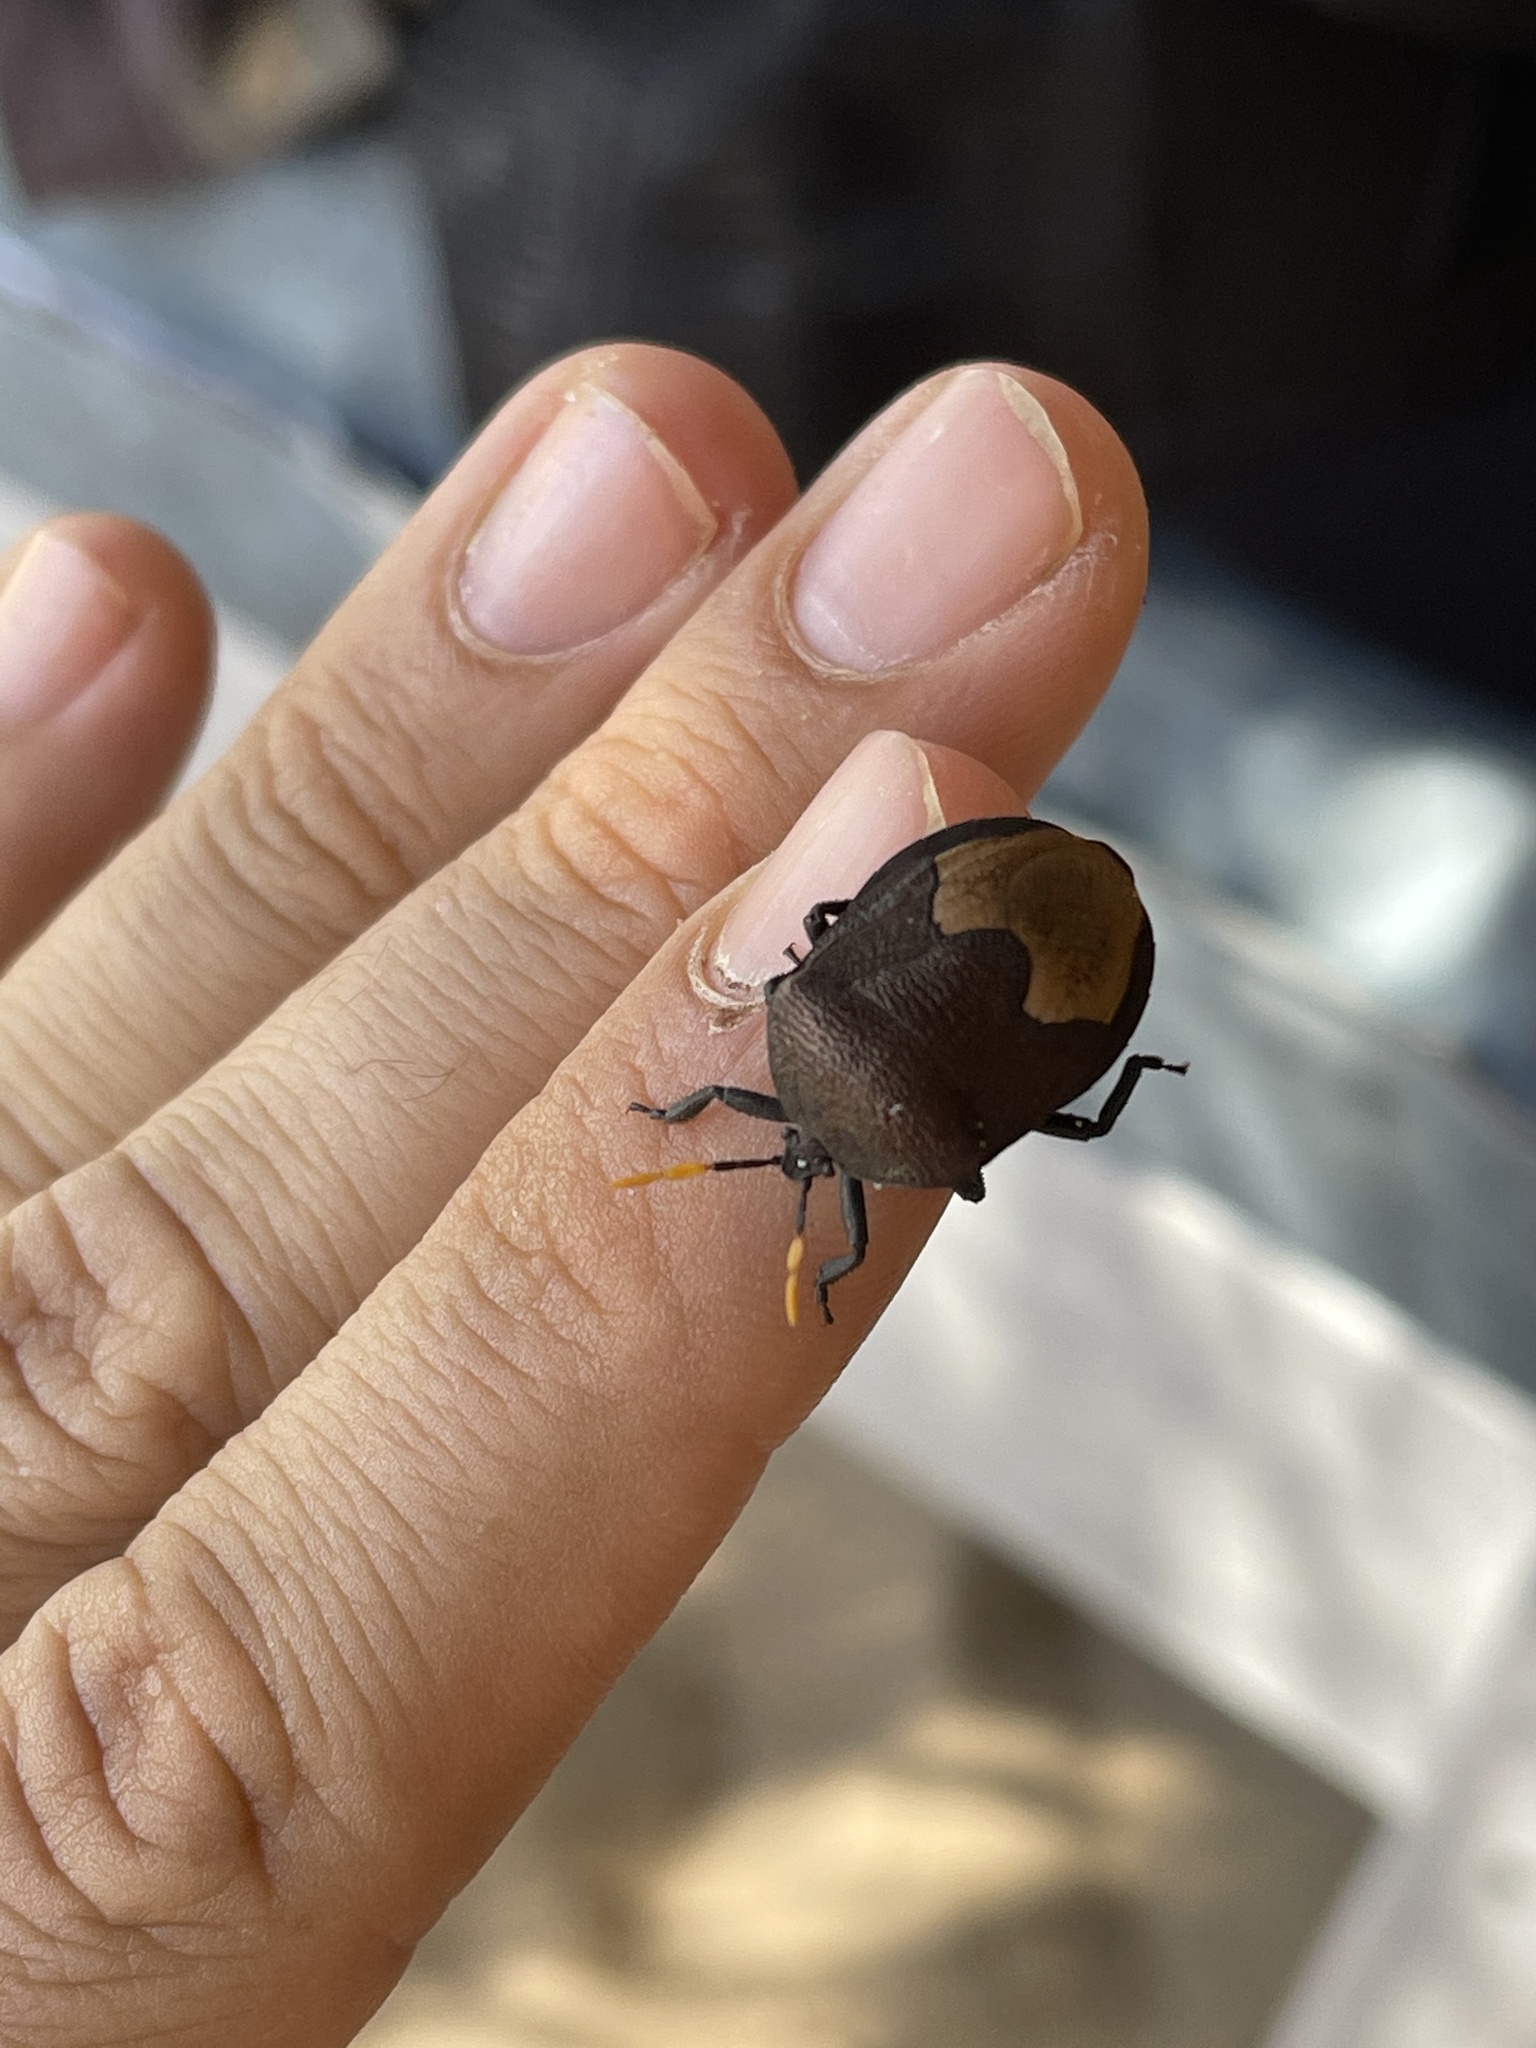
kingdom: Animalia
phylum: Arthropoda
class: Insecta
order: Hemiptera
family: Dinidoridae
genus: Coridius
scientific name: Coridius nubilus
